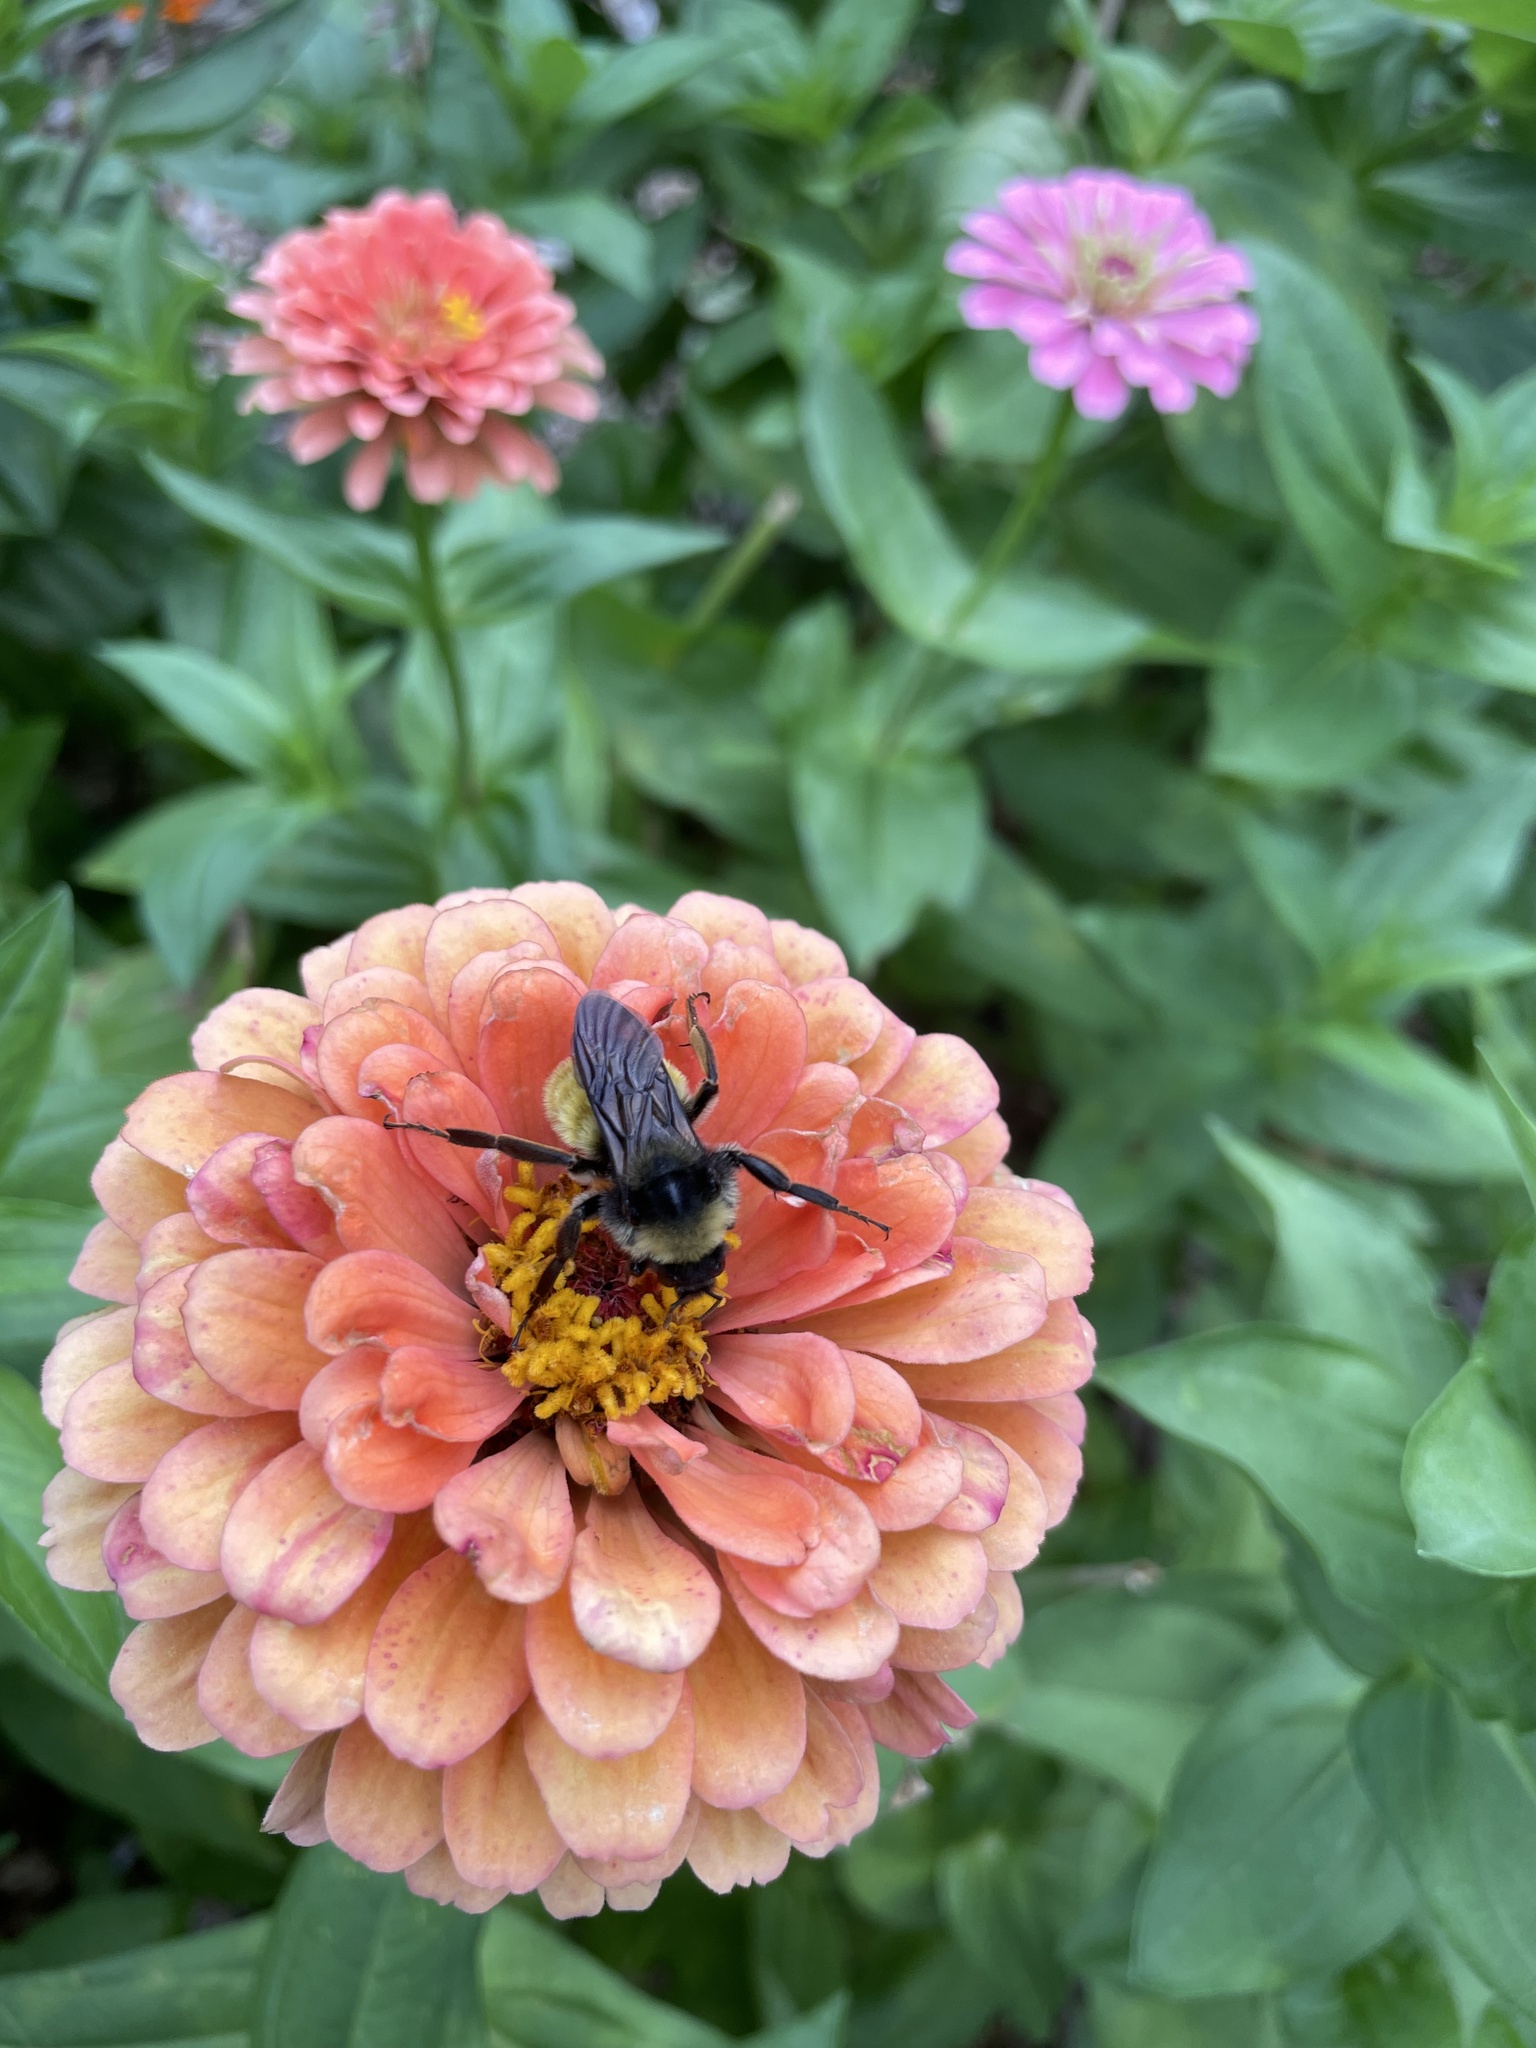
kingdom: Animalia
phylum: Arthropoda
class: Insecta
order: Hymenoptera
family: Apidae
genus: Bombus
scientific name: Bombus pensylvanicus
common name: Bumble bee
